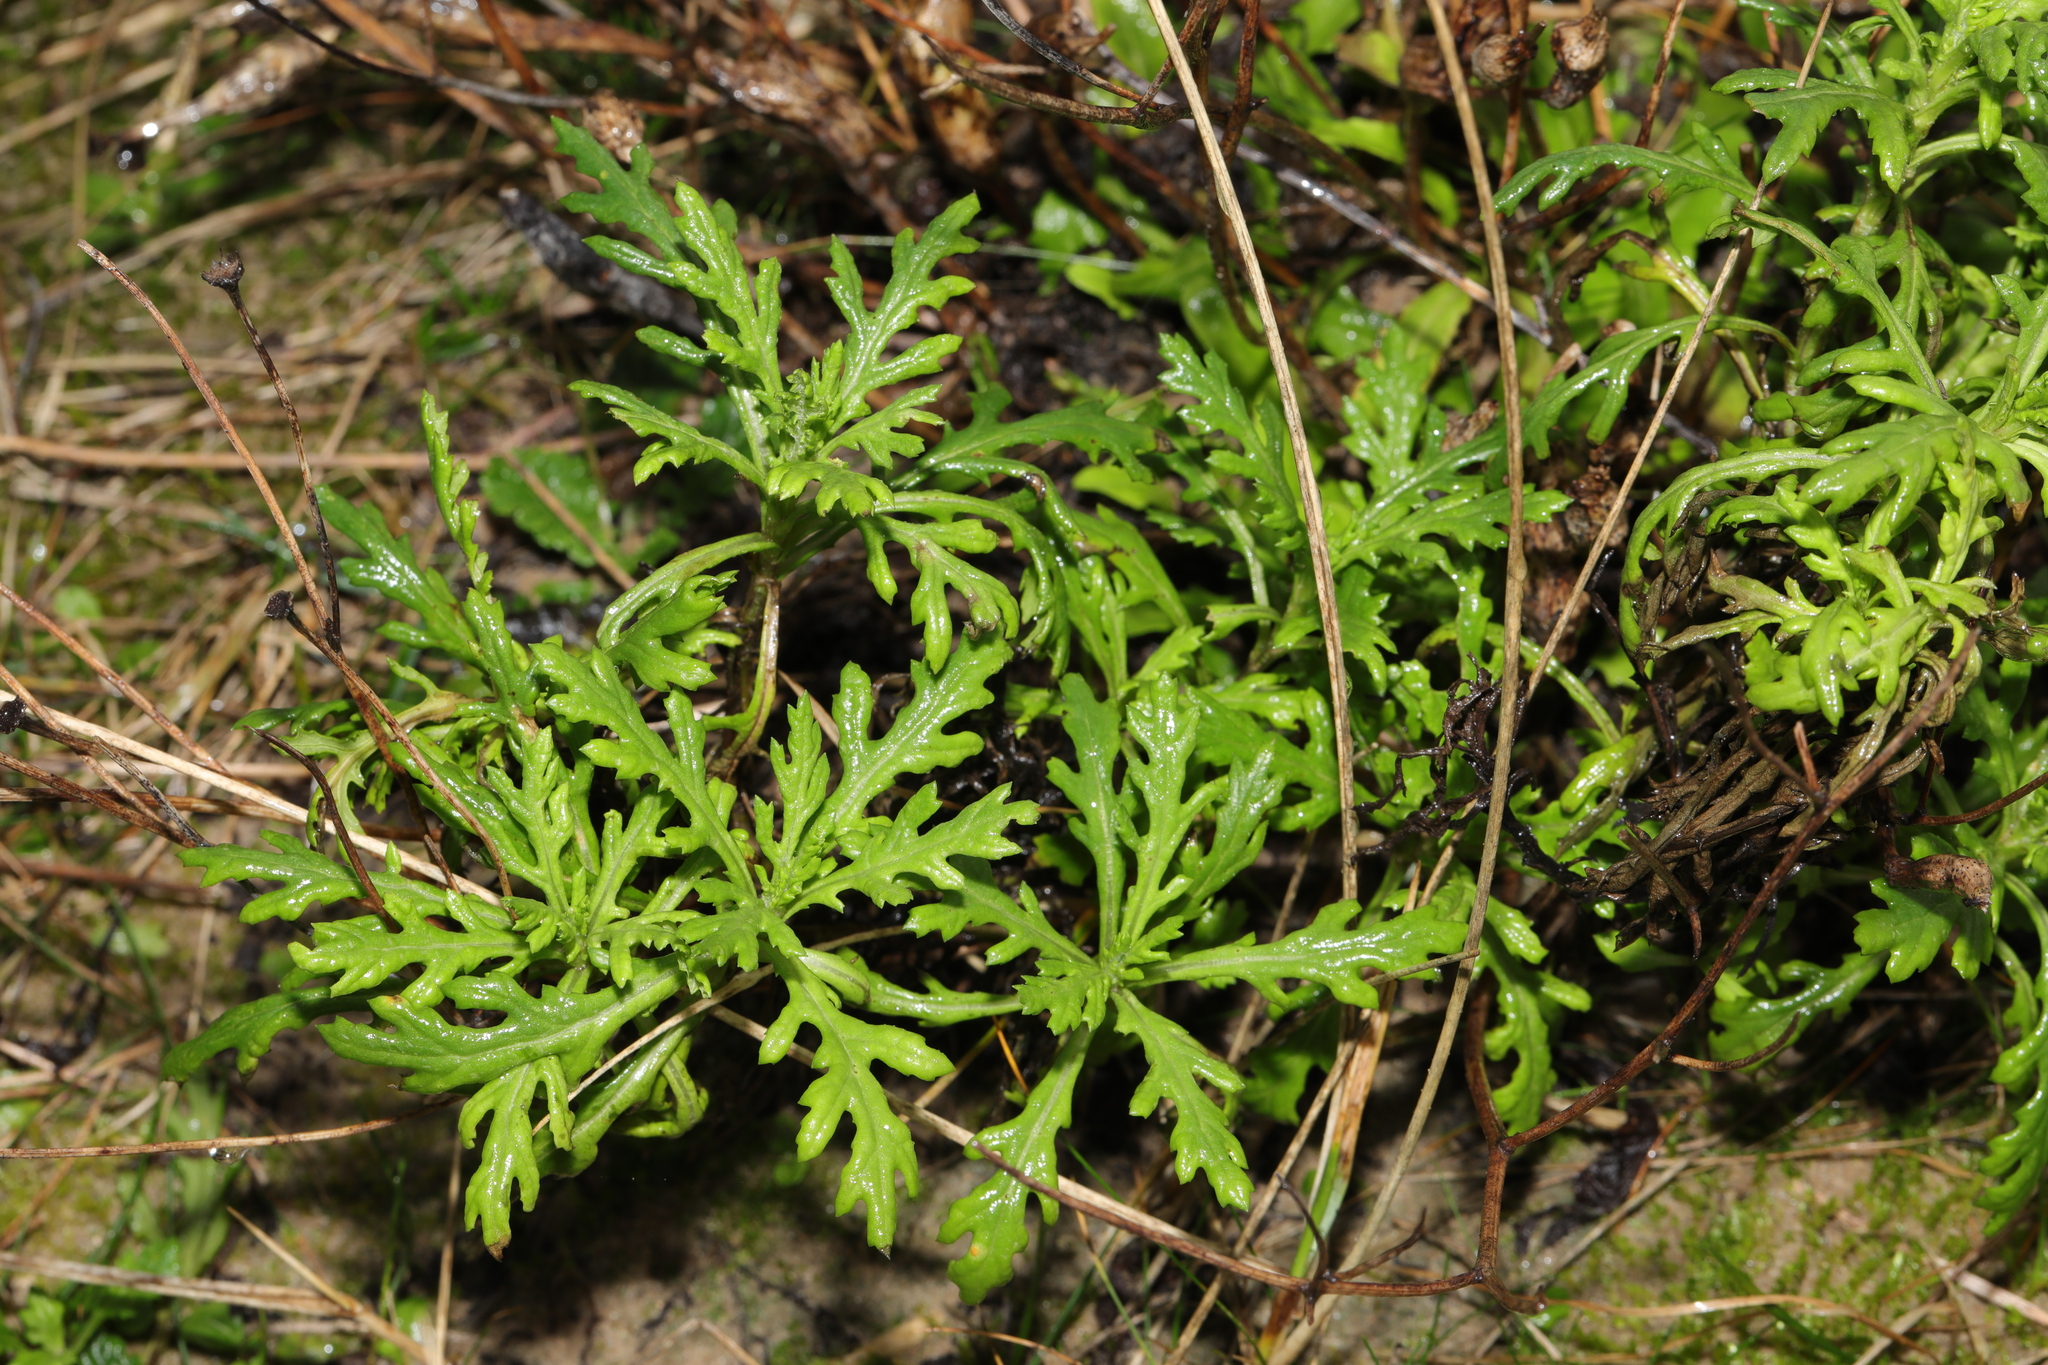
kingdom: Plantae
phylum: Tracheophyta
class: Magnoliopsida
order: Asterales
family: Asteraceae
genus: Senecio
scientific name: Senecio squalidus
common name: Oxford ragwort
